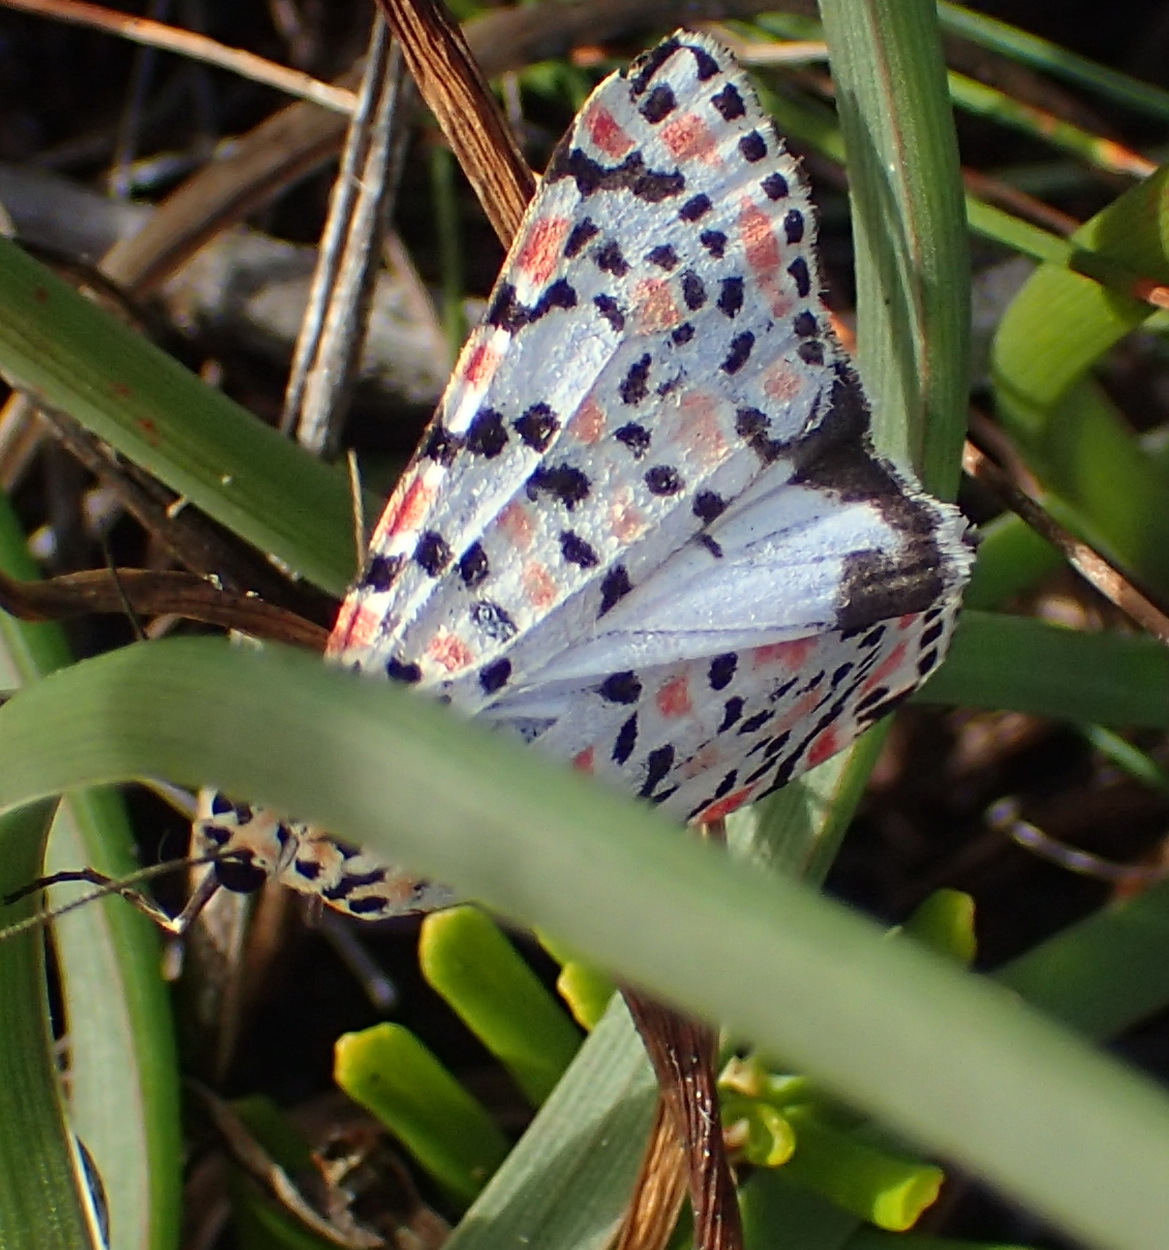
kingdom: Animalia
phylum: Arthropoda
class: Insecta
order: Lepidoptera
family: Erebidae
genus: Utetheisa
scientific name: Utetheisa pulchella
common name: Crimson speckled
